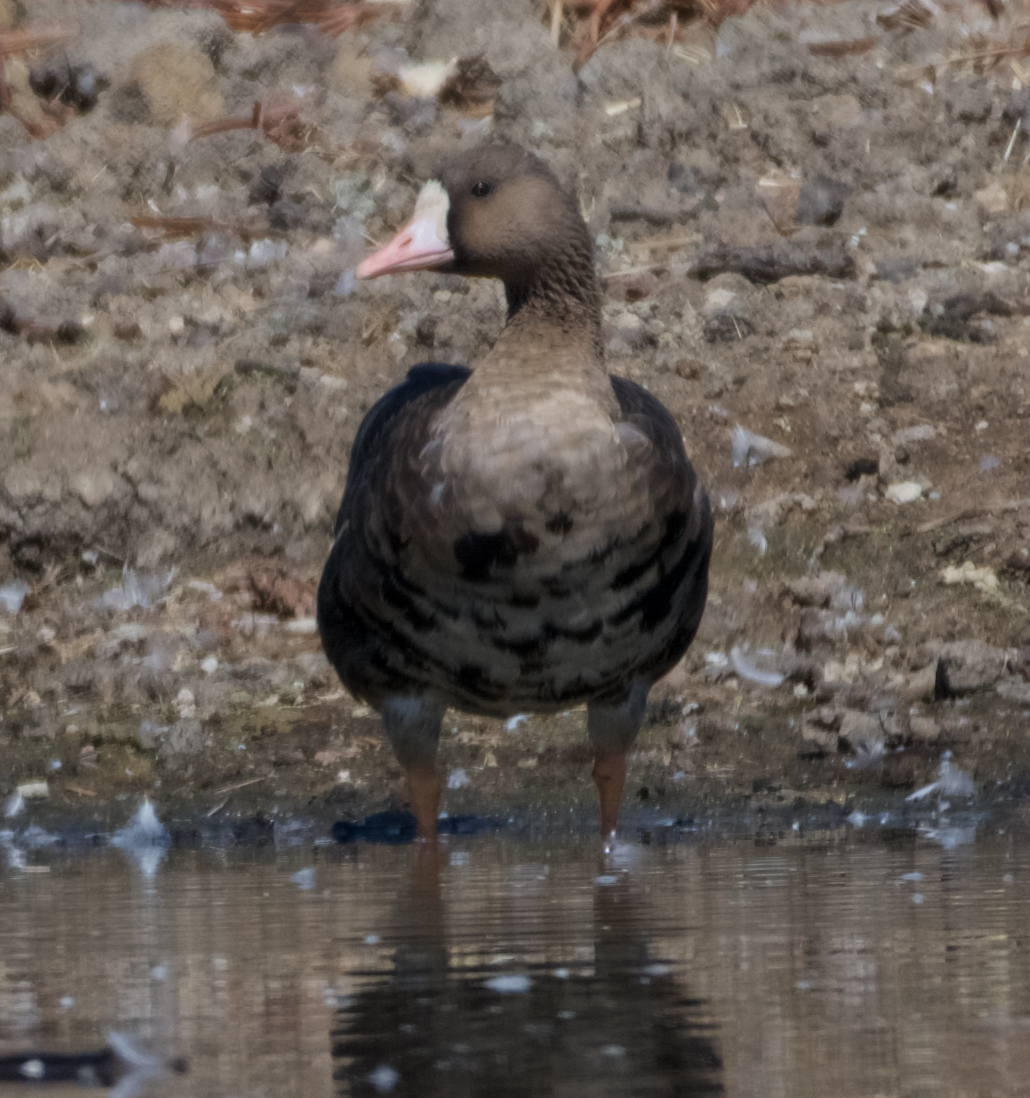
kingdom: Animalia
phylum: Chordata
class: Aves
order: Anseriformes
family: Anatidae
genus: Anser
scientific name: Anser albifrons
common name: Greater white-fronted goose
